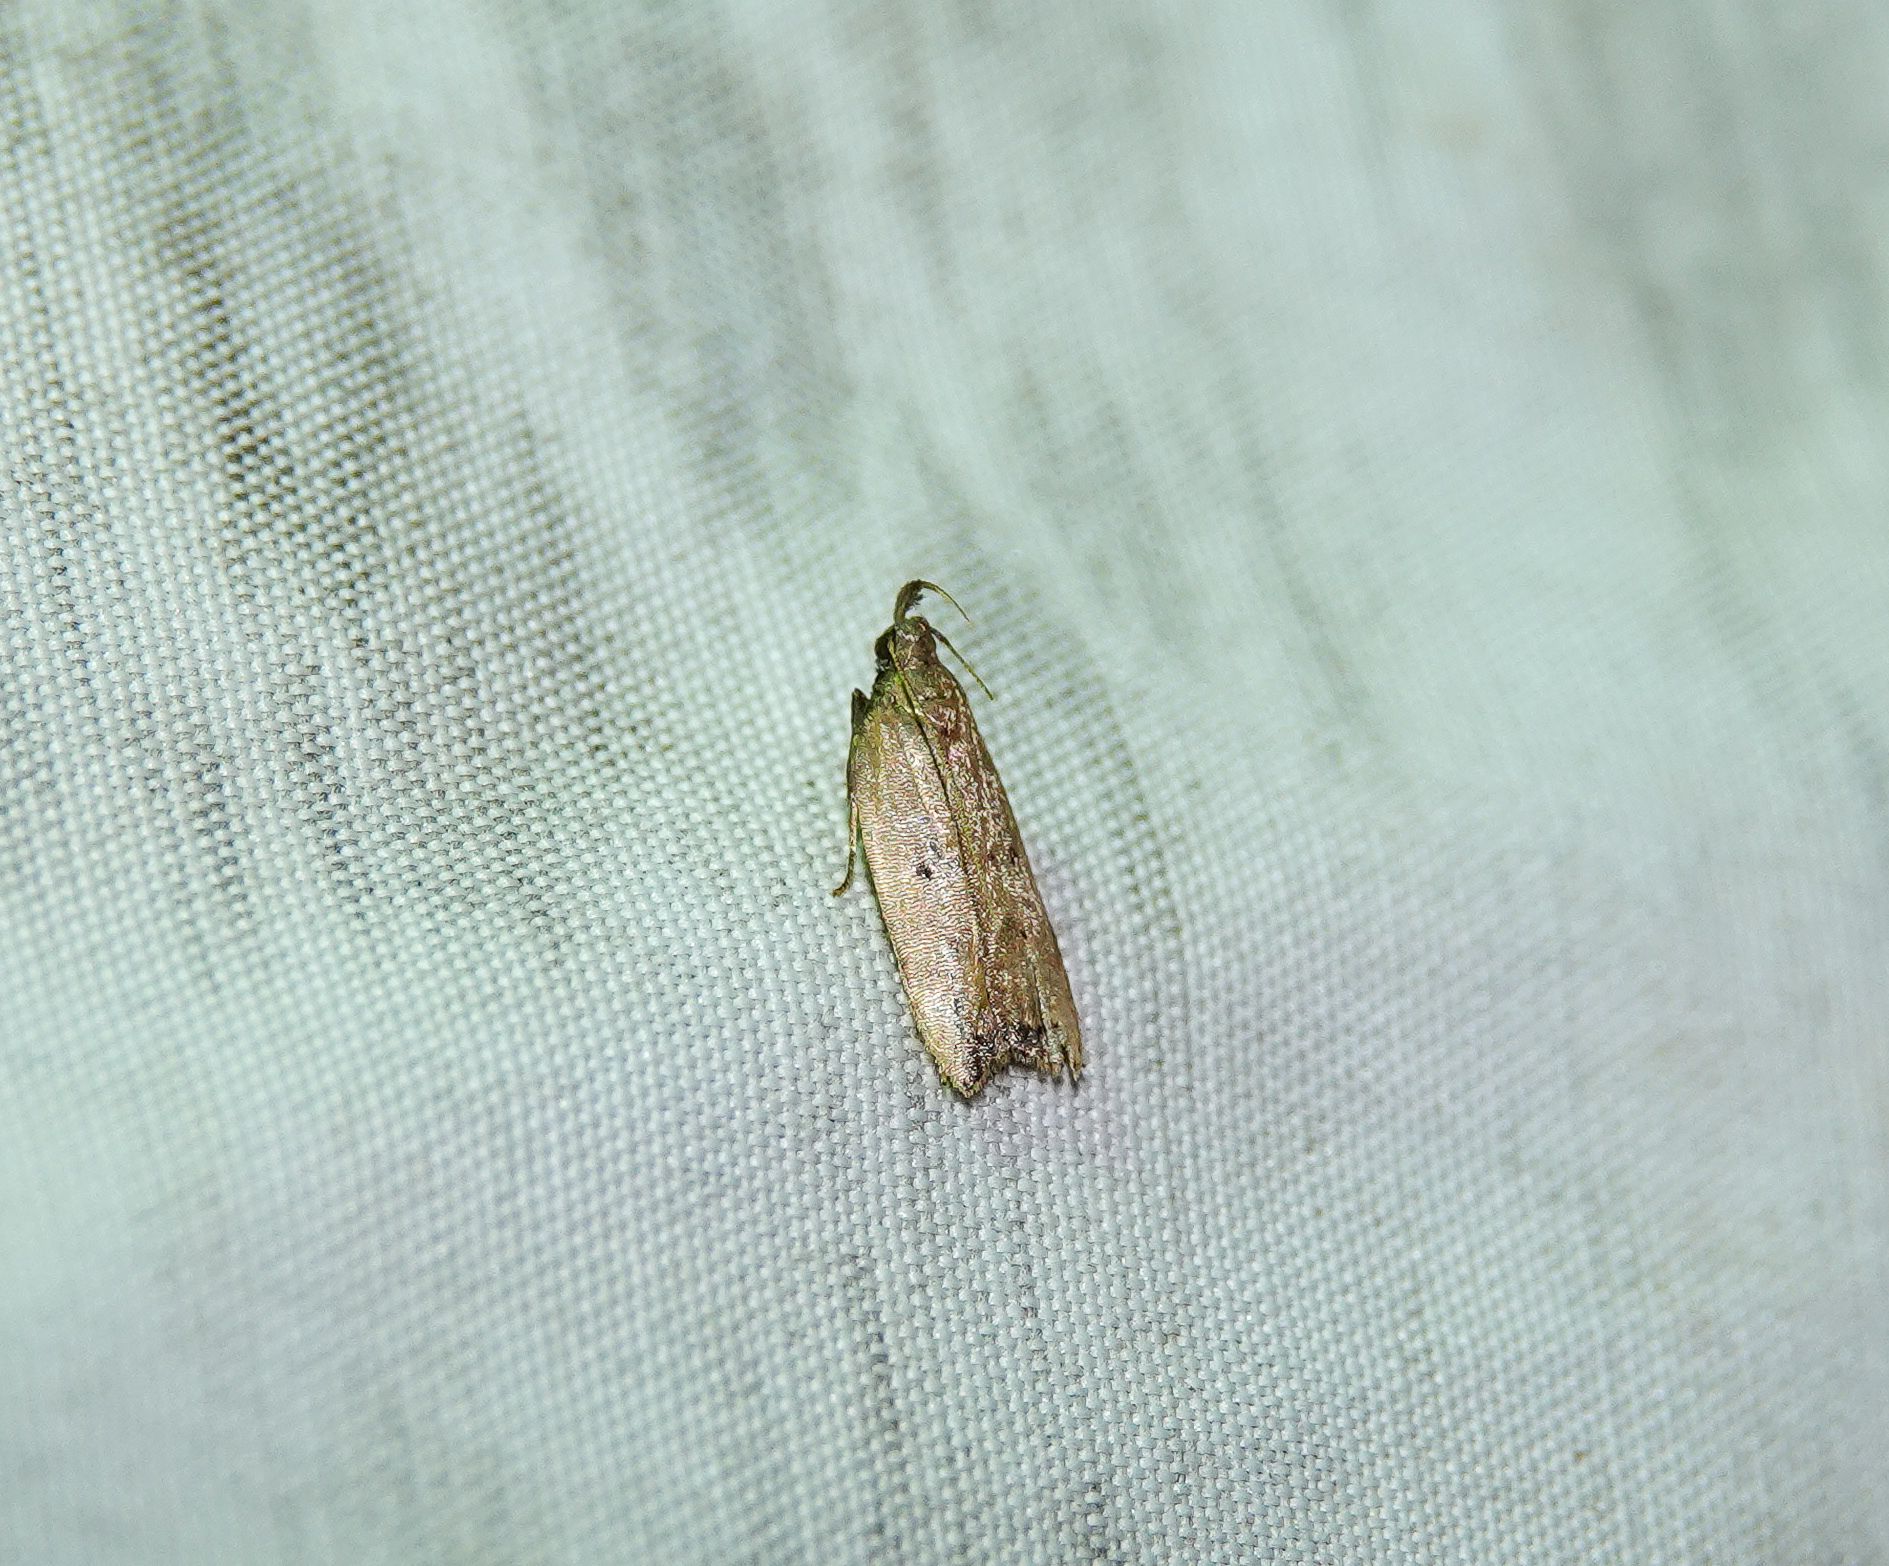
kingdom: Animalia
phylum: Arthropoda
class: Insecta
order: Lepidoptera
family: Gelechiidae
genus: Dichomeris
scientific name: Dichomeris punctipennella
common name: Many-spotted dichomeris moth
